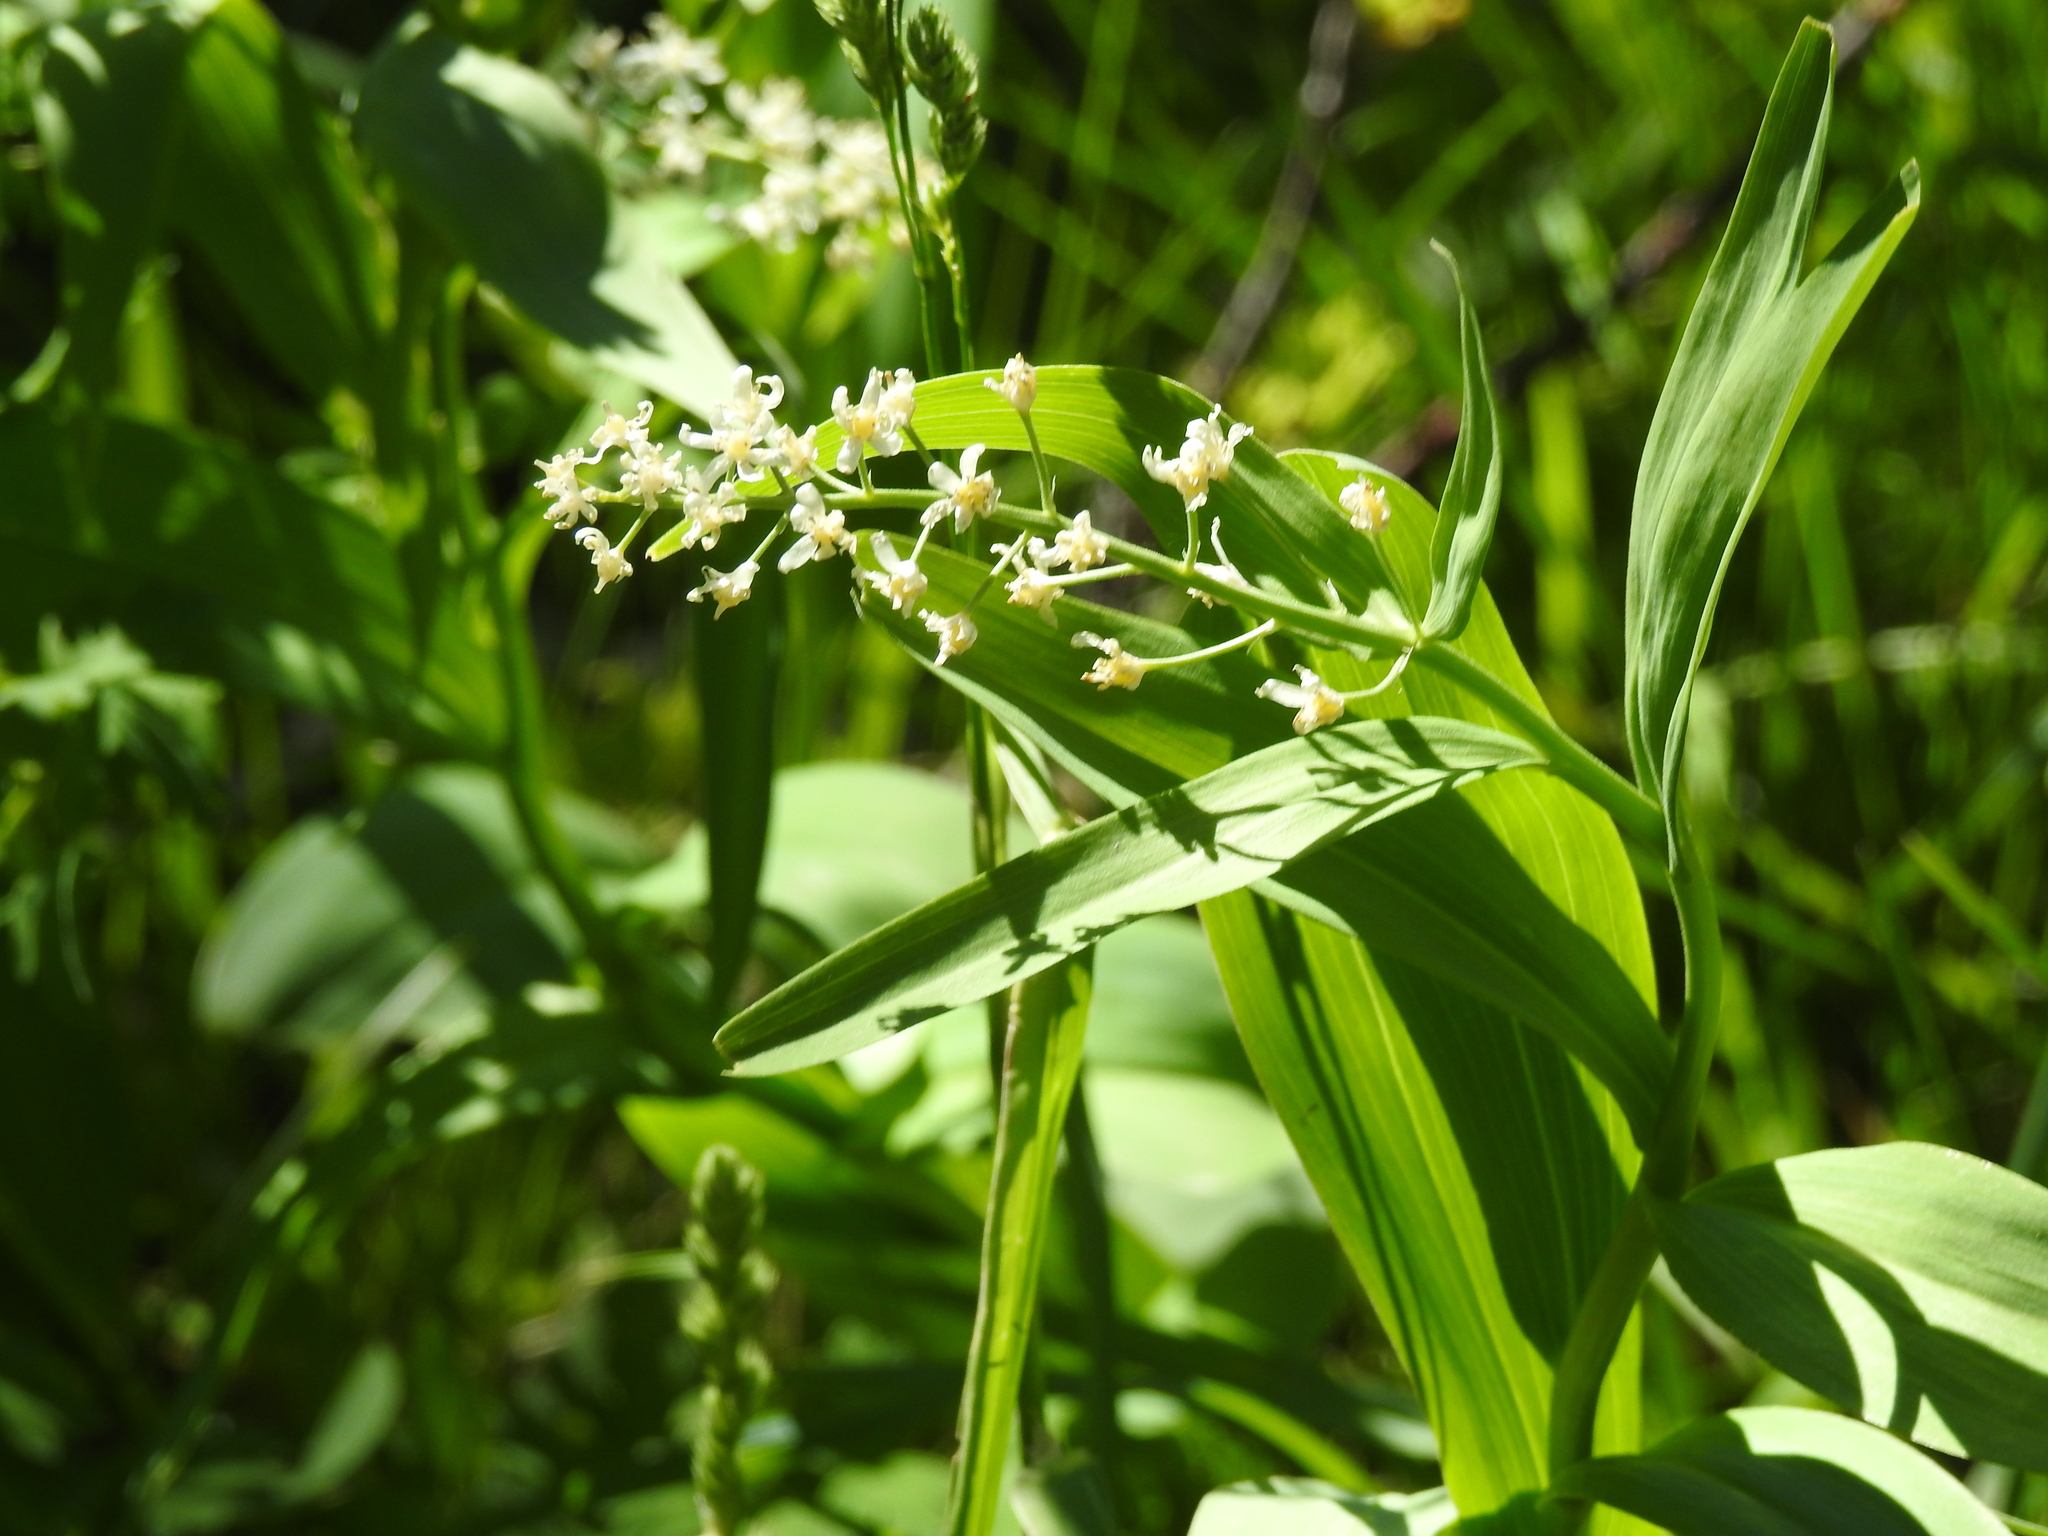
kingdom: Plantae
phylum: Tracheophyta
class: Liliopsida
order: Asparagales
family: Asparagaceae
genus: Maianthemum
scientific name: Maianthemum stellatum
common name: Little false solomon's seal
